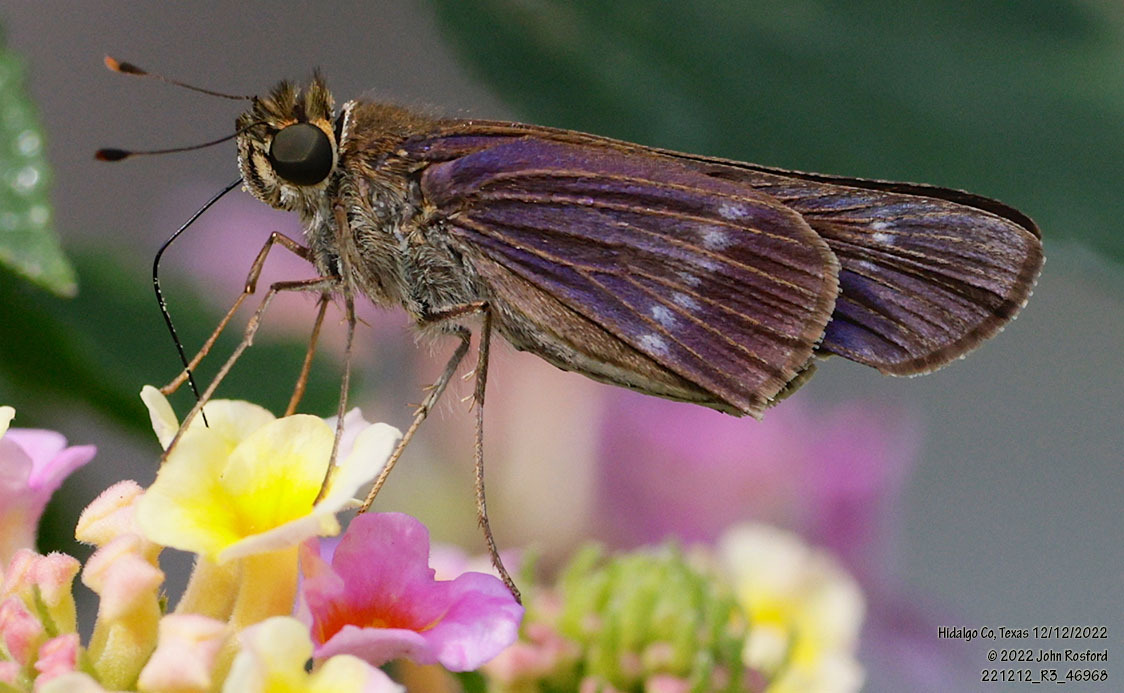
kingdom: Animalia
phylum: Arthropoda
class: Insecta
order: Lepidoptera
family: Hesperiidae
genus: Turesis
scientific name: Turesis lucas
